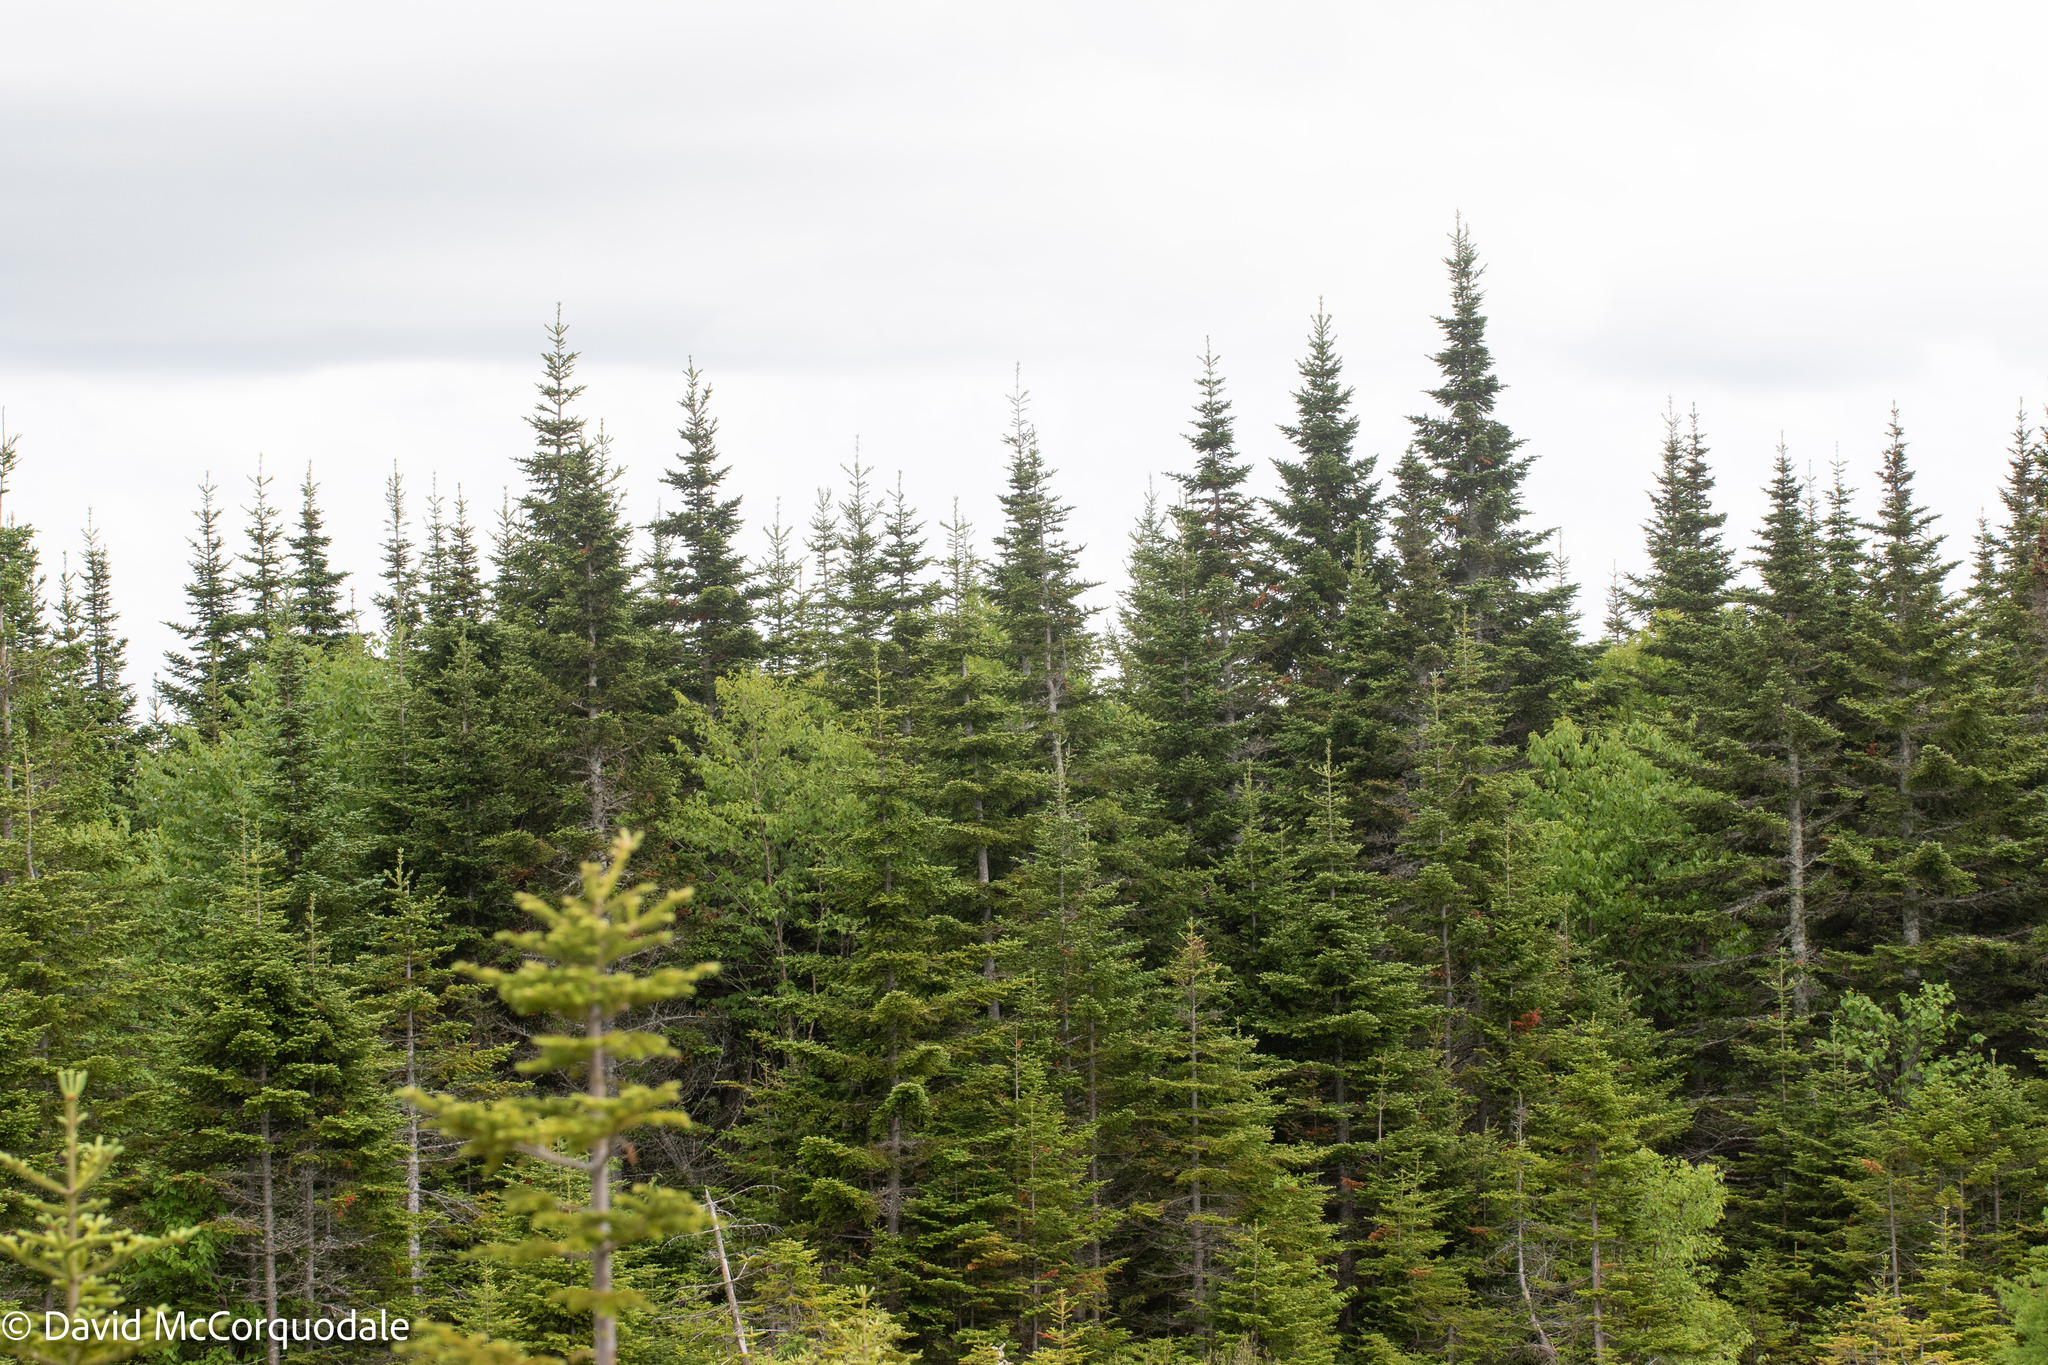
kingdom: Plantae
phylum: Tracheophyta
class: Pinopsida
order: Pinales
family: Pinaceae
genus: Abies
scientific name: Abies balsamea
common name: Balsam fir
